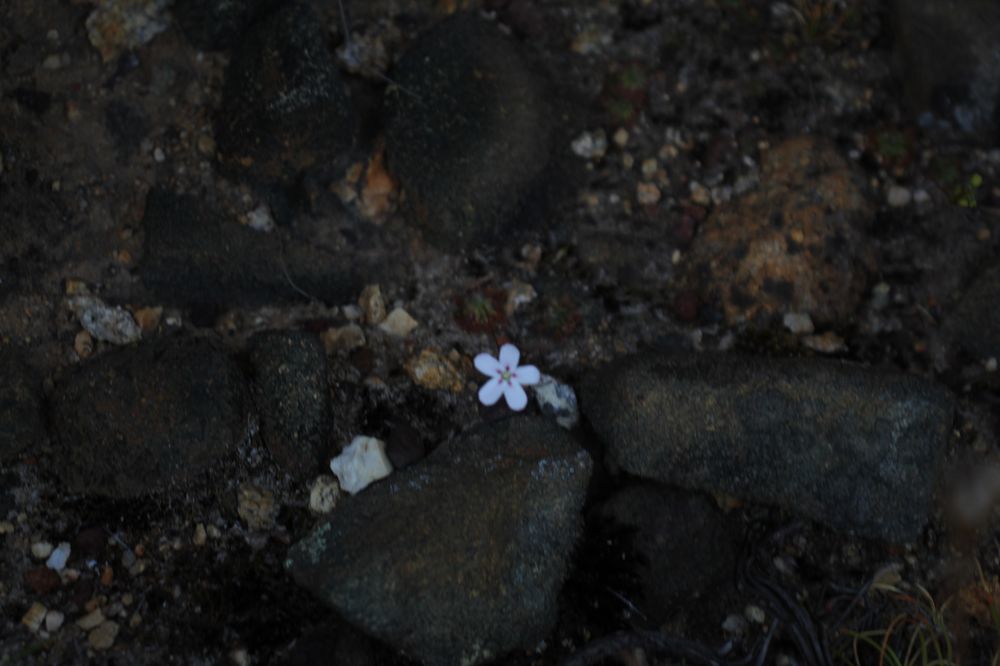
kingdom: Plantae
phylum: Tracheophyta
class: Magnoliopsida
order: Caryophyllales
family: Droseraceae
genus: Drosera
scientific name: Drosera spilos
